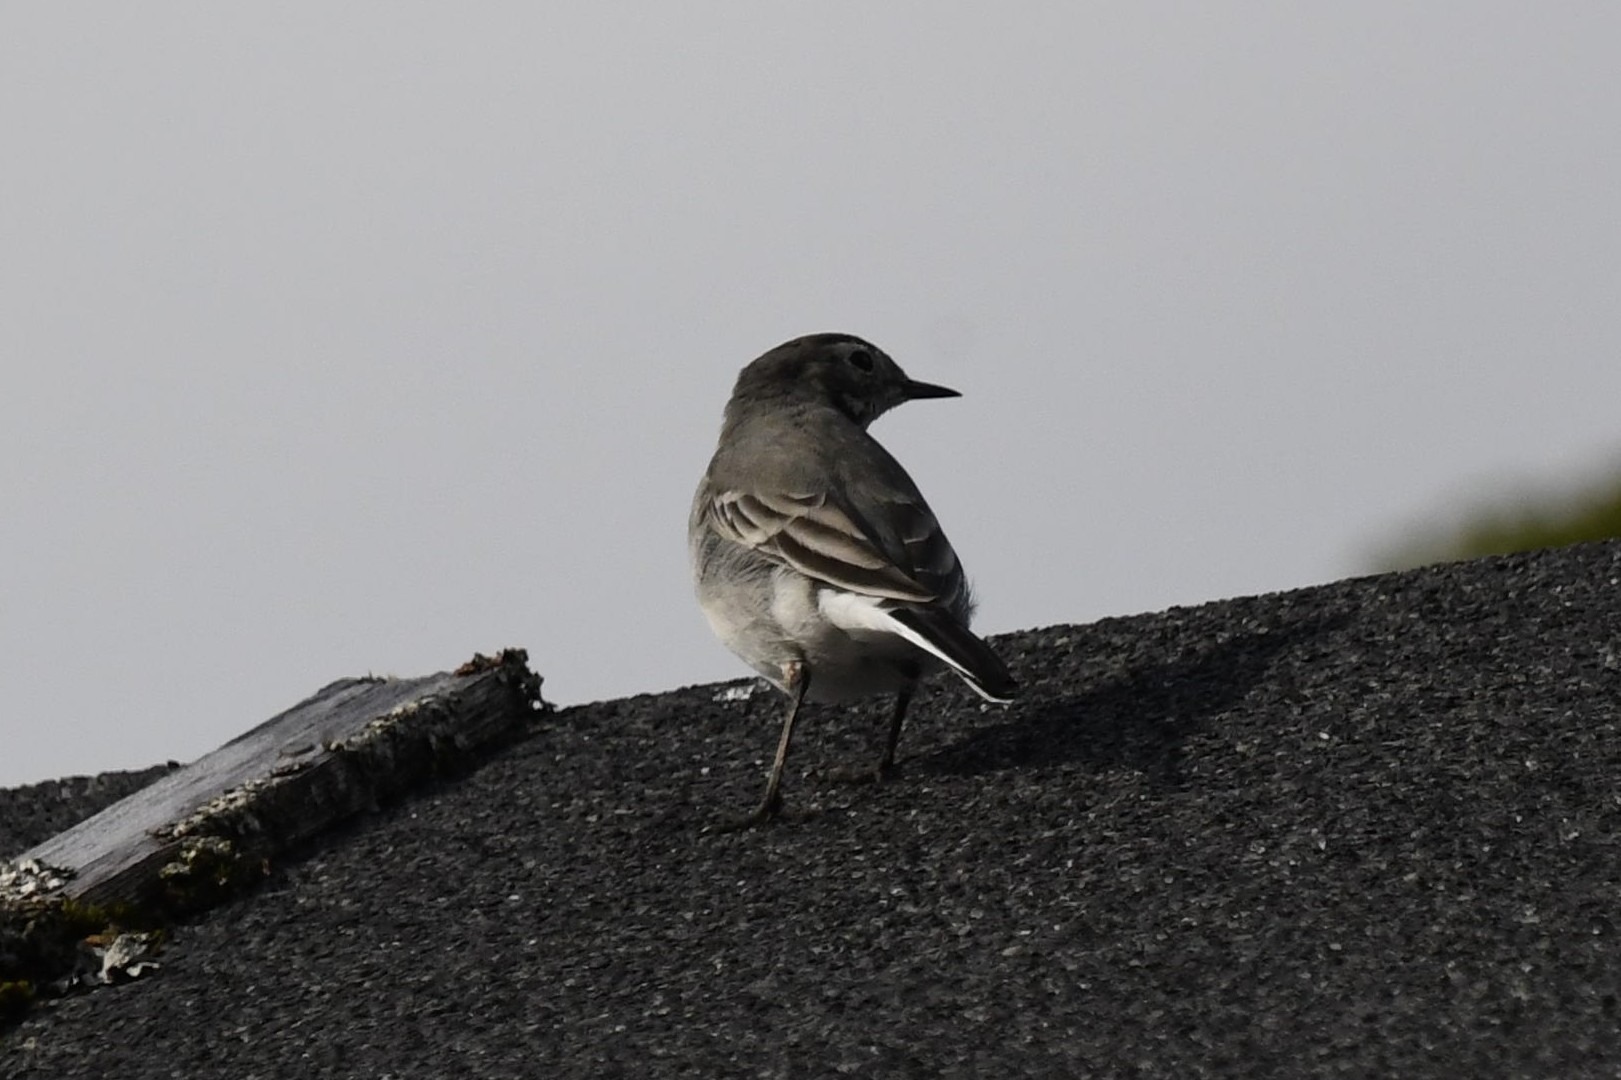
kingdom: Animalia
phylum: Chordata
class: Aves
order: Passeriformes
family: Motacillidae
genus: Motacilla
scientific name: Motacilla alba
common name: White wagtail
